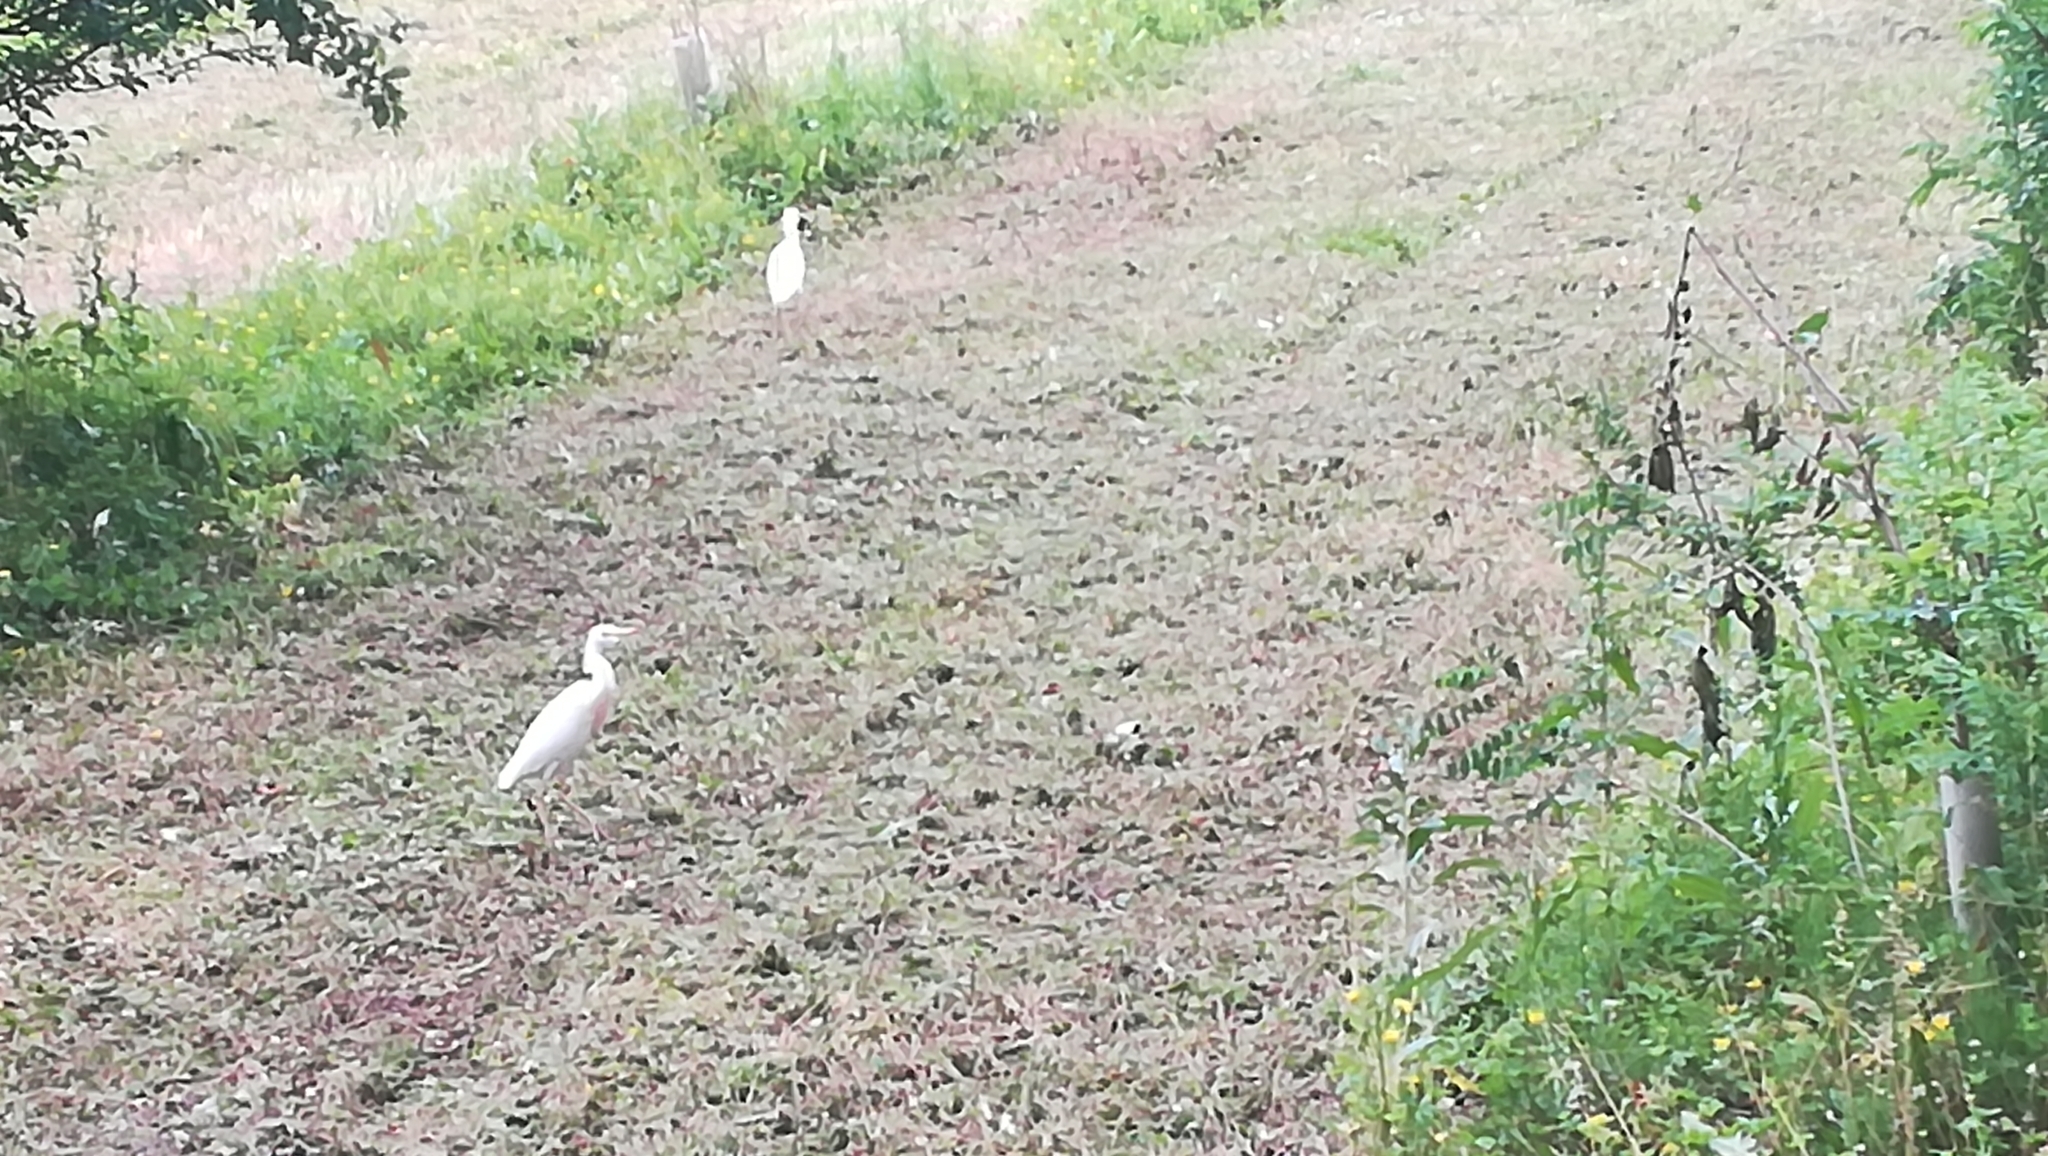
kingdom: Animalia
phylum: Chordata
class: Aves
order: Pelecaniformes
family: Ardeidae
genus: Bubulcus
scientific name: Bubulcus ibis
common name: Cattle egret
